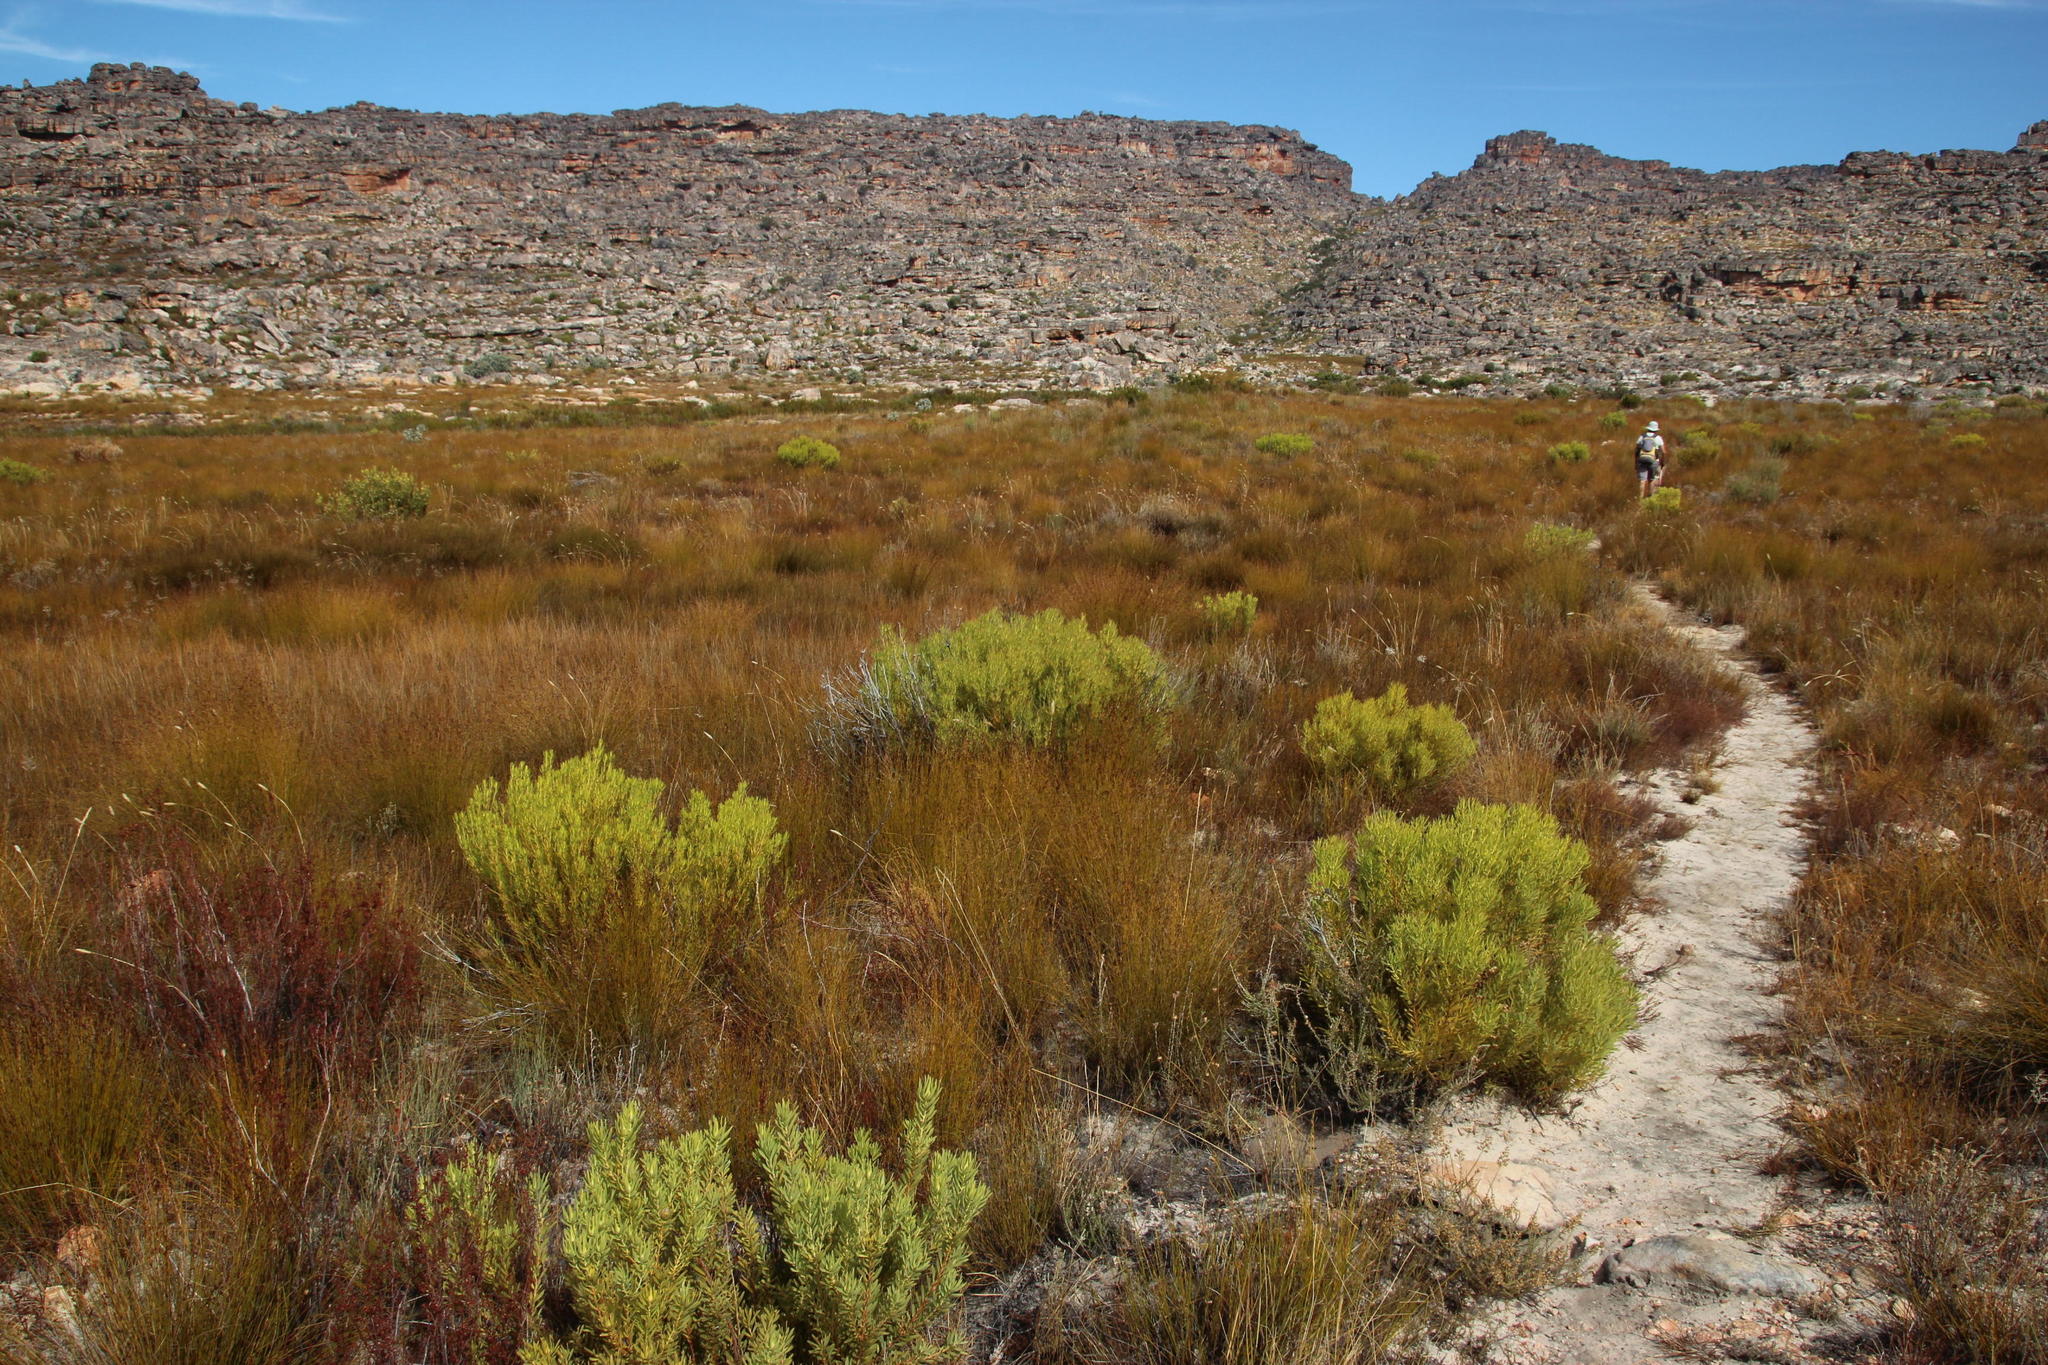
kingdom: Plantae
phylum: Tracheophyta
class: Magnoliopsida
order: Proteales
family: Proteaceae
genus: Leucadendron
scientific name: Leucadendron salignum
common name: Common sunshine conebush
